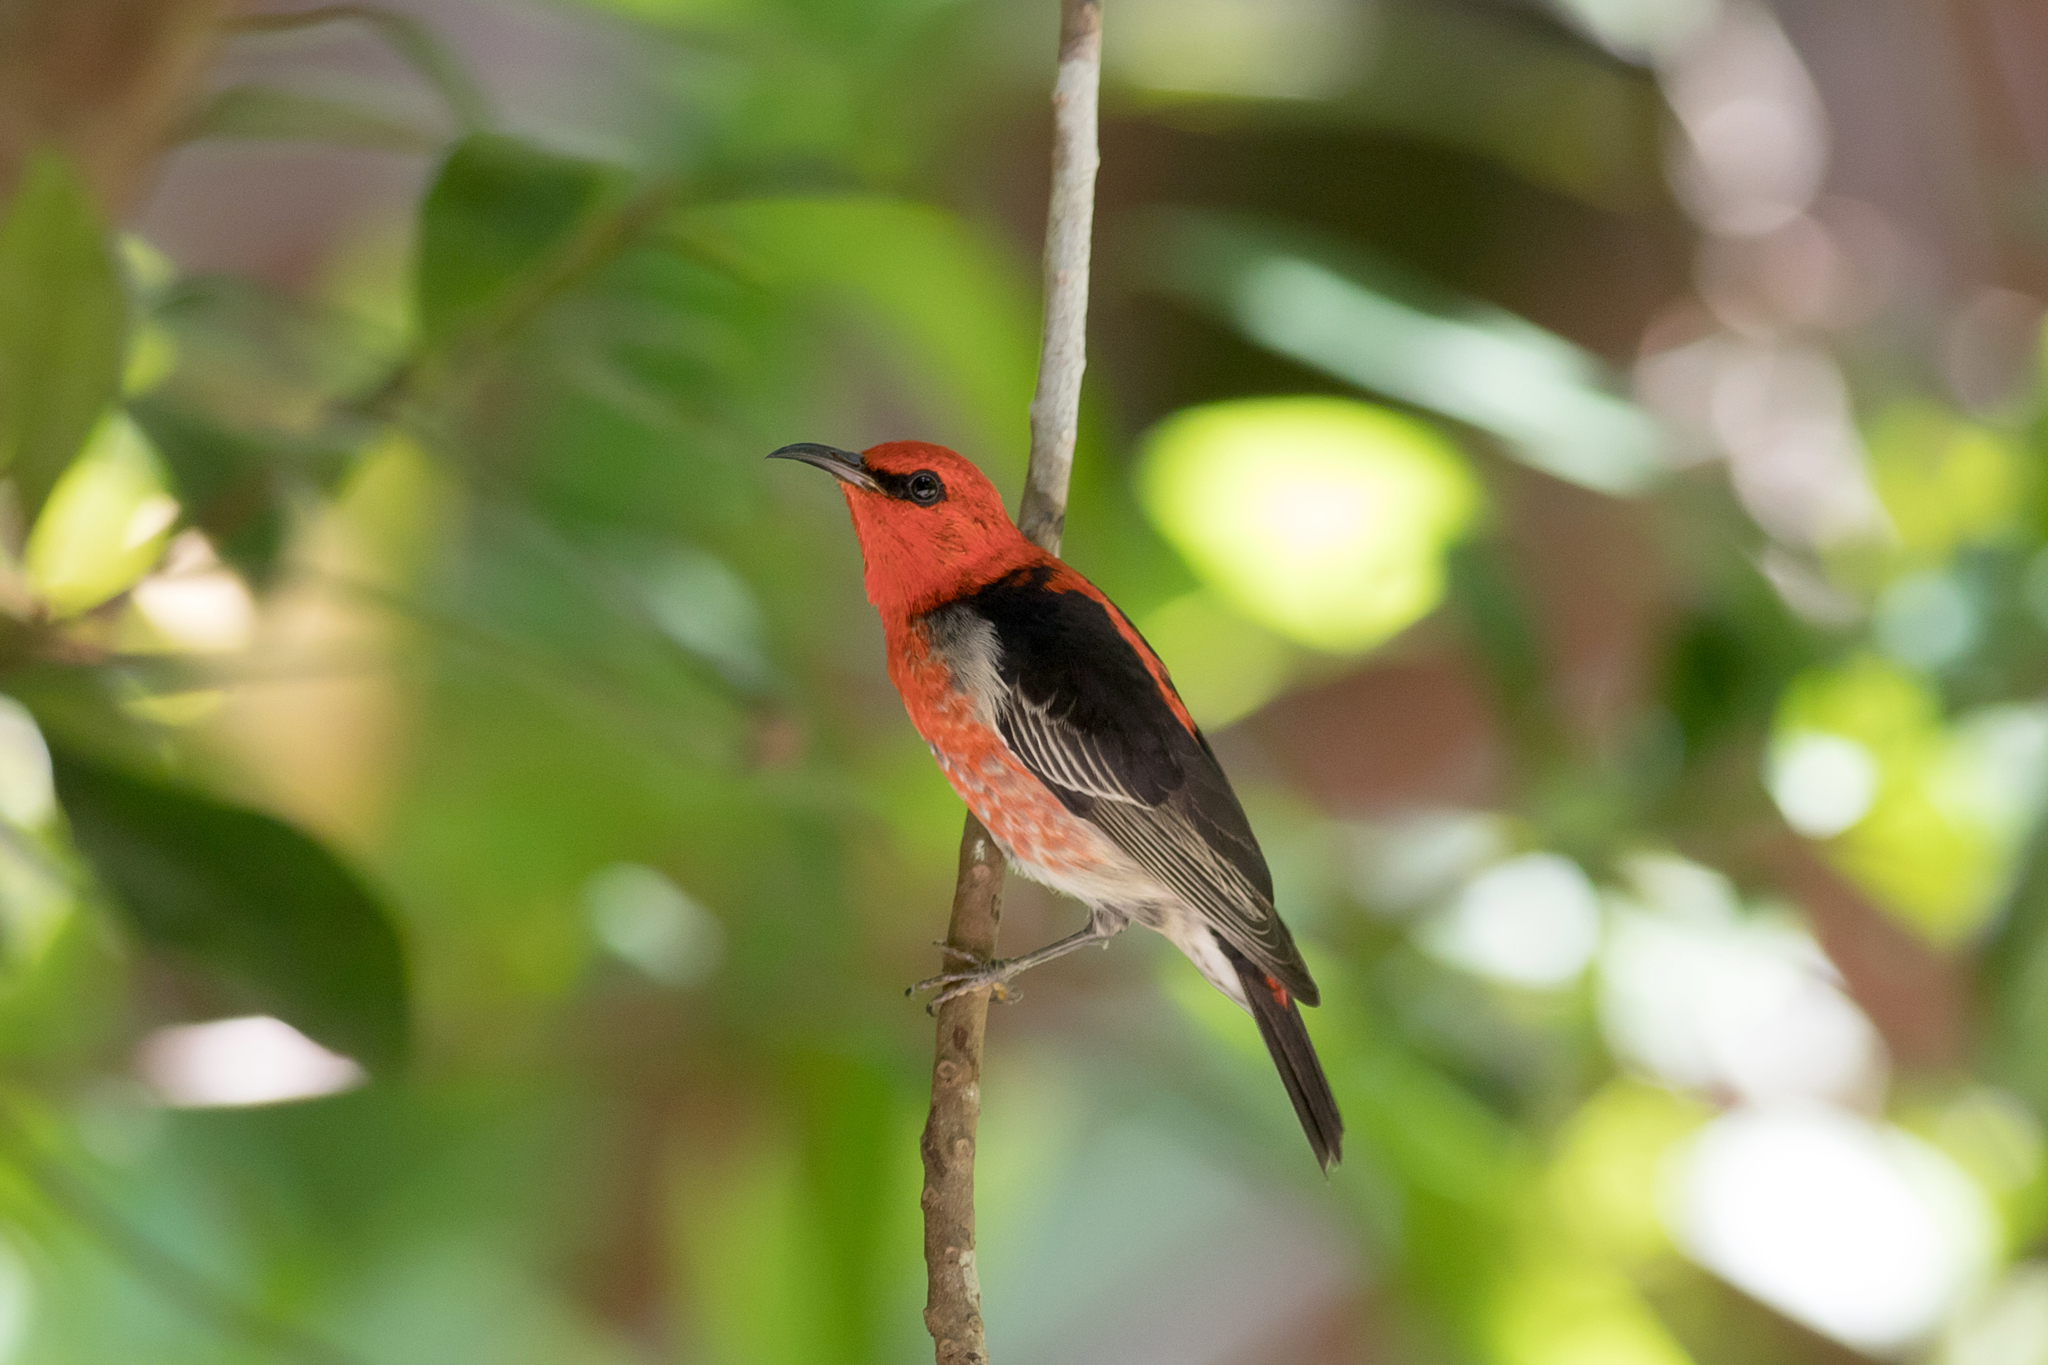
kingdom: Animalia
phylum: Chordata
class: Aves
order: Passeriformes
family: Meliphagidae
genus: Myzomela
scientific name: Myzomela sanguinolenta
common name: Scarlet myzomela
